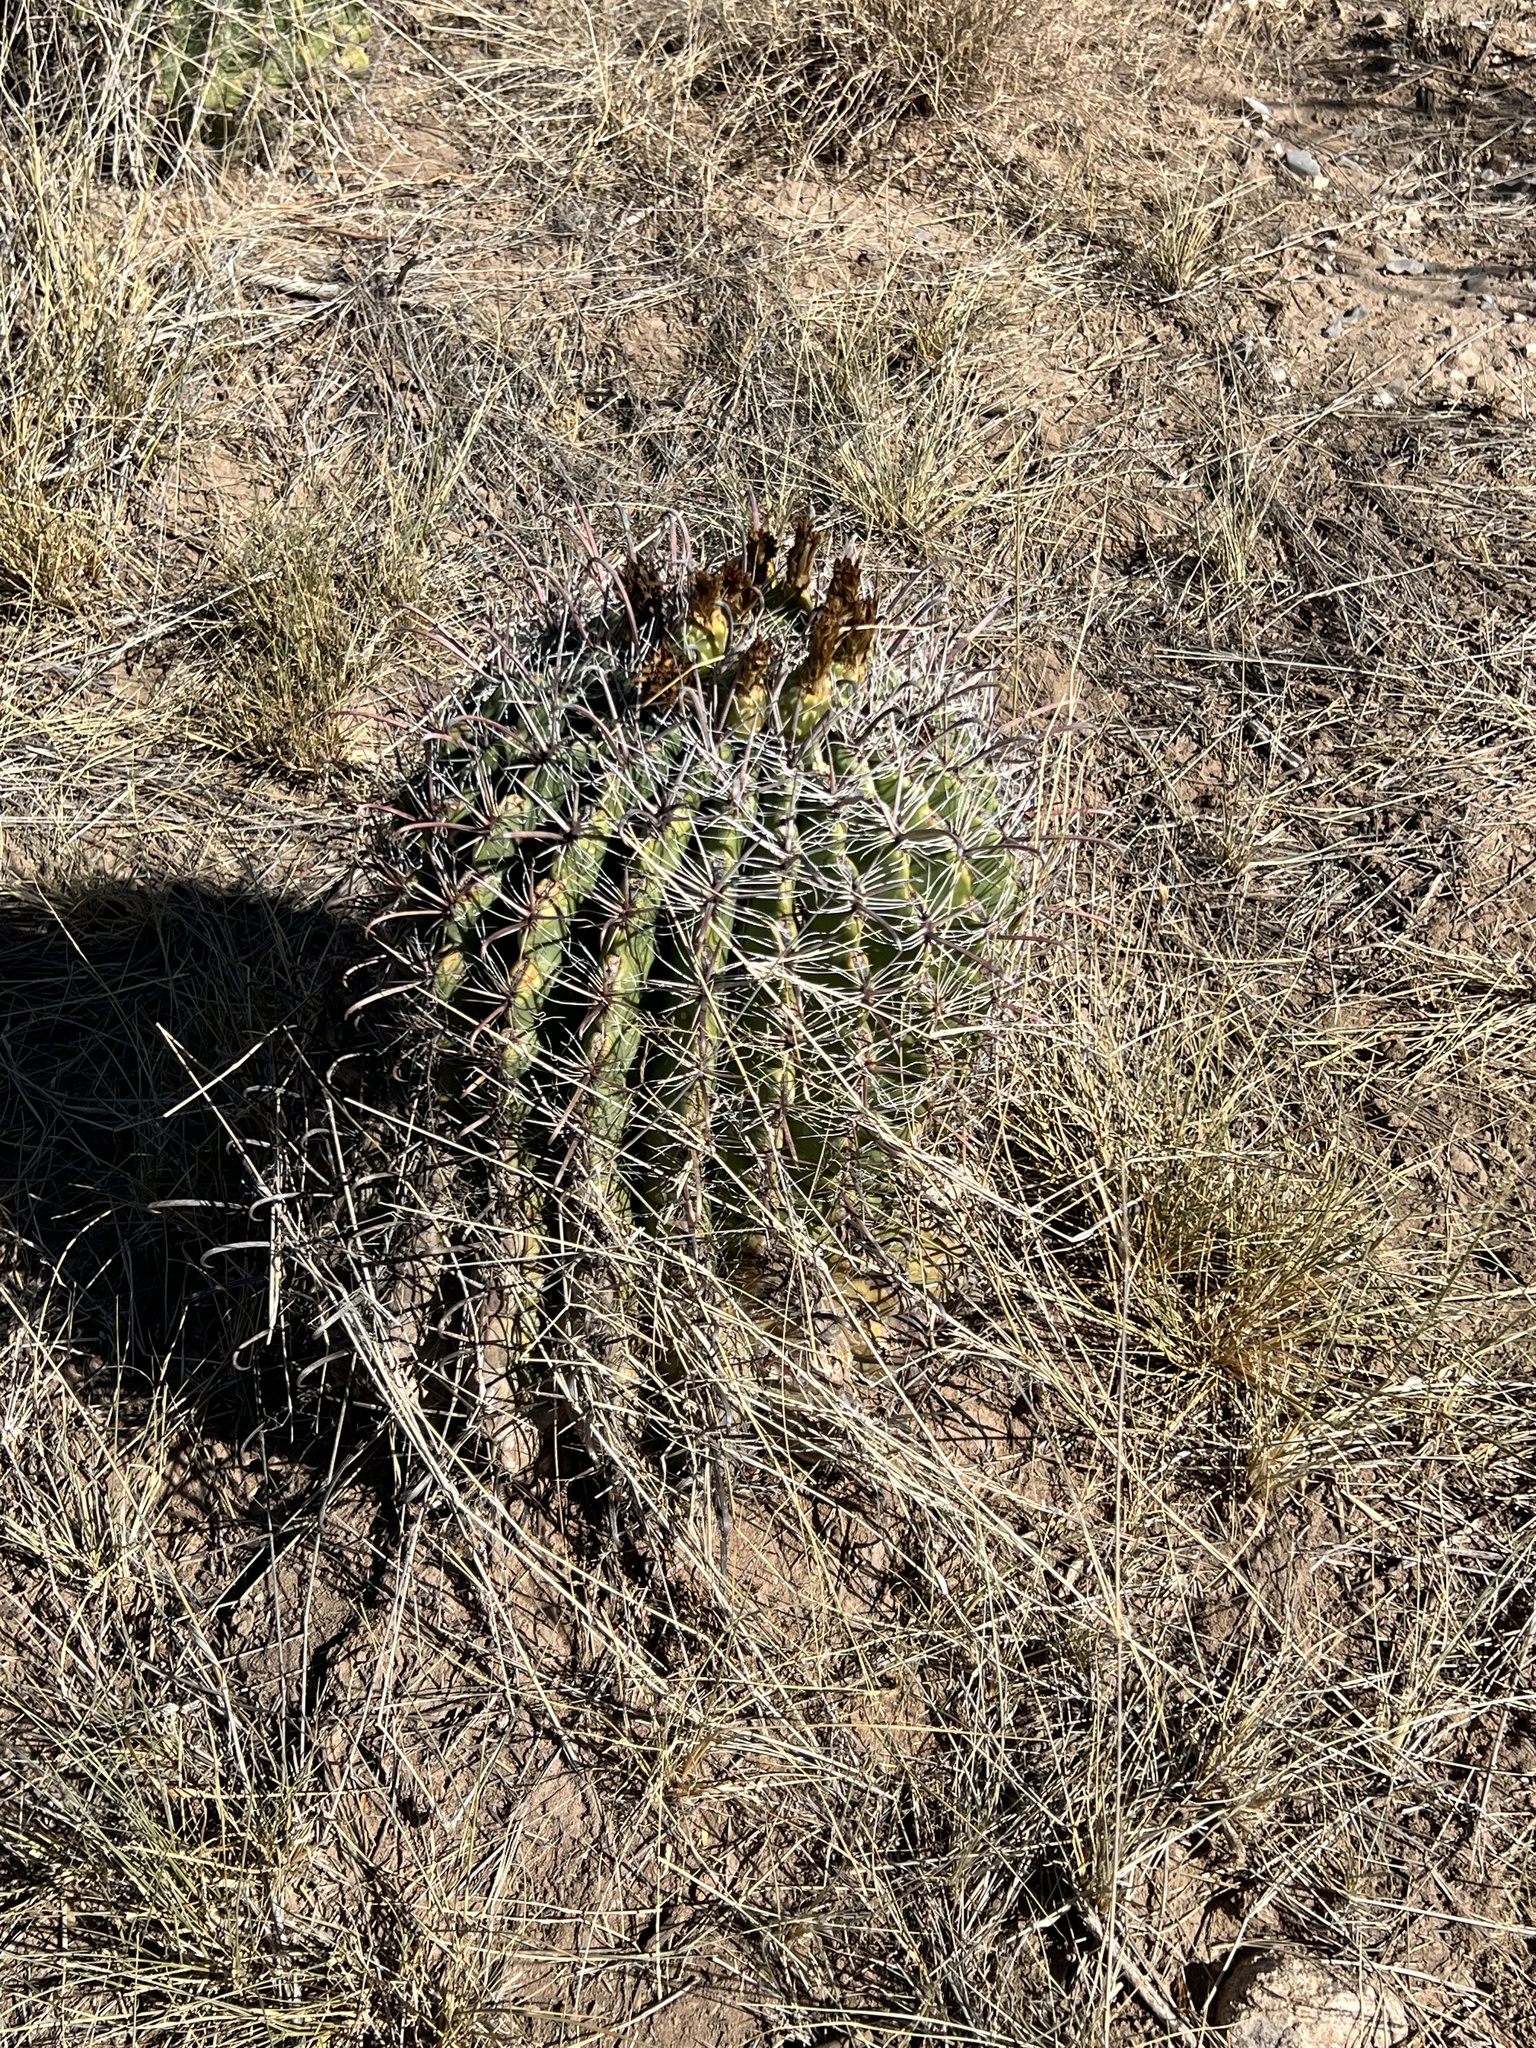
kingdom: Plantae
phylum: Tracheophyta
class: Magnoliopsida
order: Caryophyllales
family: Cactaceae
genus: Ferocactus
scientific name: Ferocactus wislizeni
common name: Candy barrel cactus
